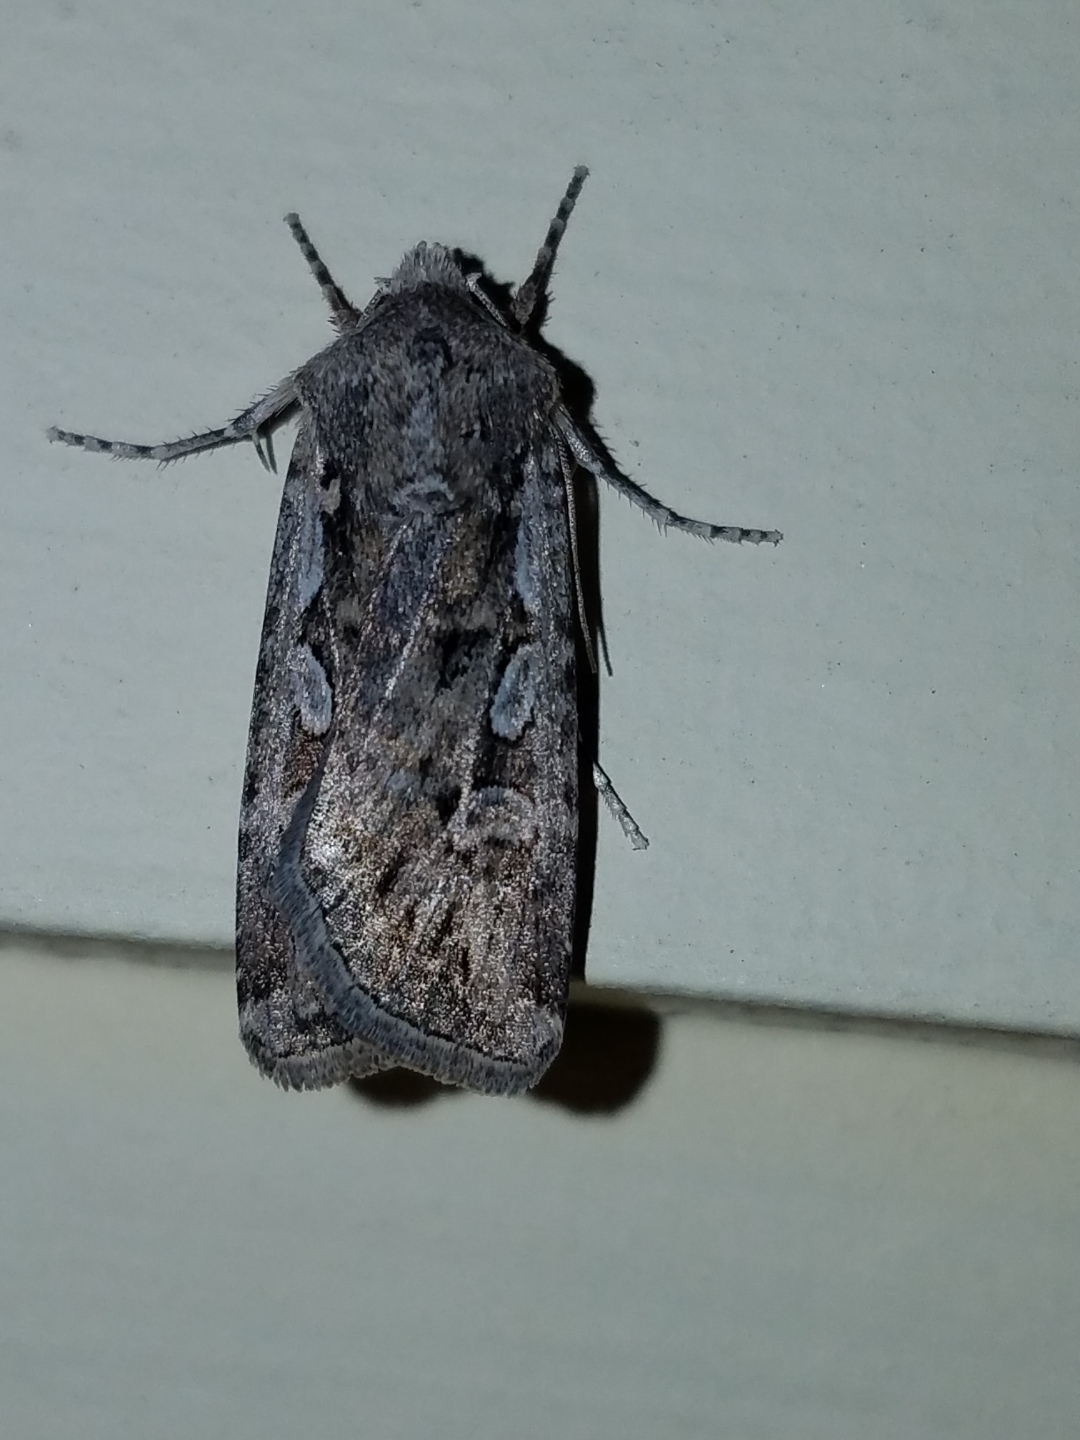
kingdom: Animalia
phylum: Arthropoda
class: Insecta
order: Lepidoptera
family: Noctuidae
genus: Euxoa
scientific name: Euxoa auxiliaris
